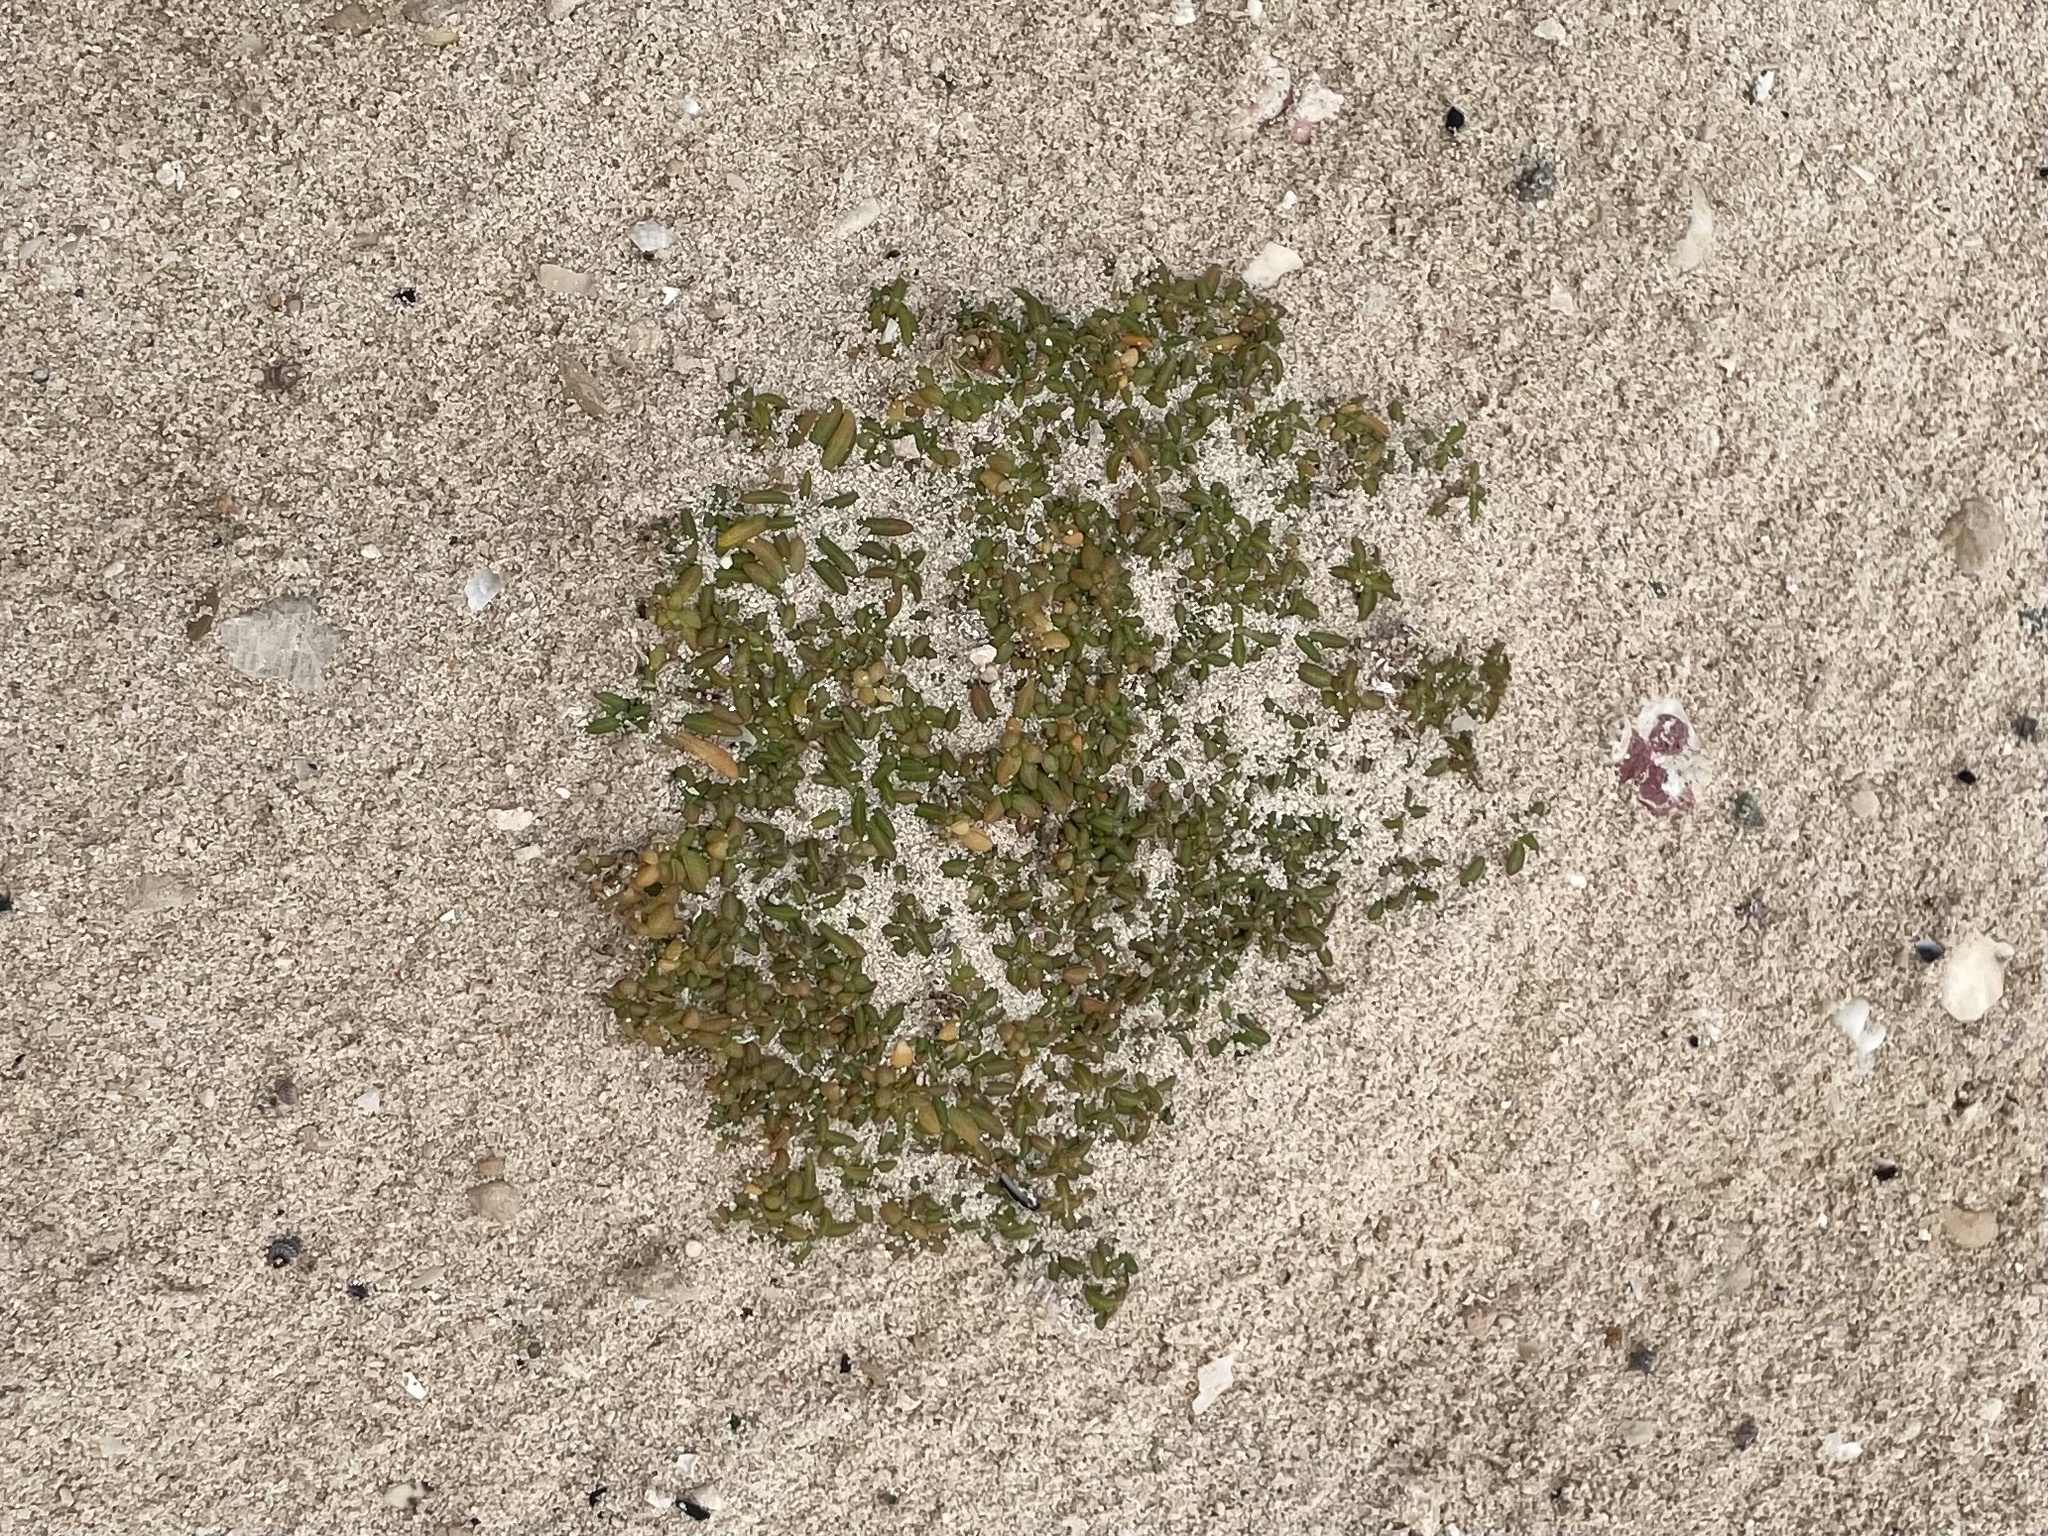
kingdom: Plantae
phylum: Tracheophyta
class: Magnoliopsida
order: Caryophyllales
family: Amaranthaceae
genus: Gomphrena
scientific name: Gomphrena muscoides
